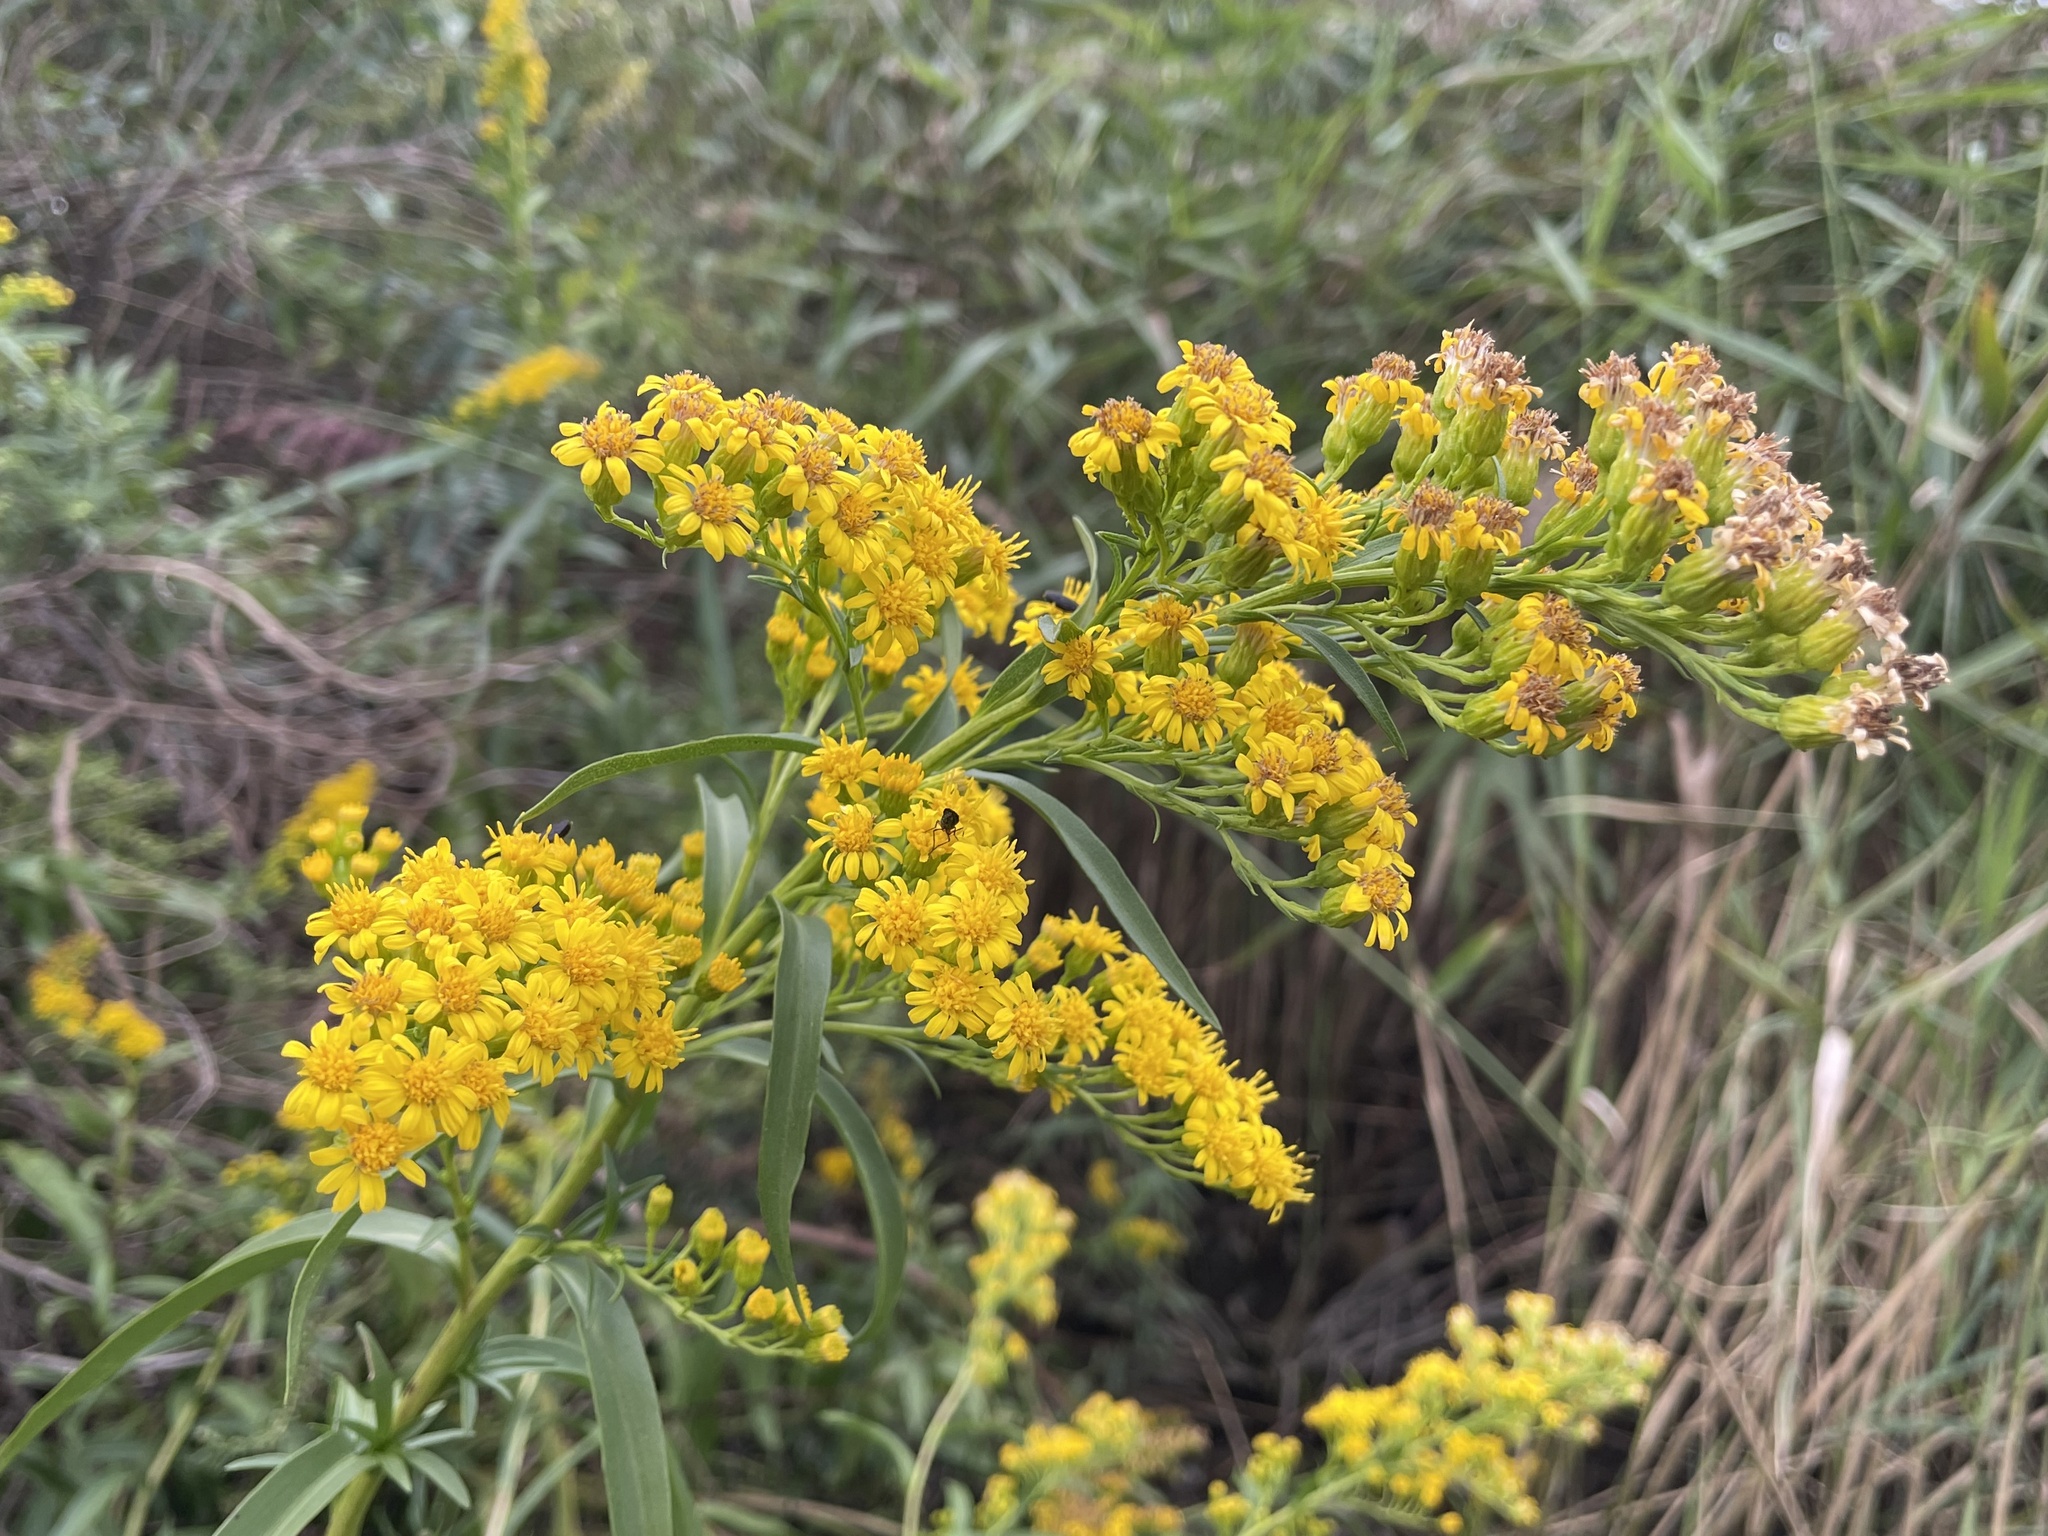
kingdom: Plantae
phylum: Tracheophyta
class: Magnoliopsida
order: Asterales
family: Asteraceae
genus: Solidago
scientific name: Solidago sempervirens
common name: Salt-marsh goldenrod
